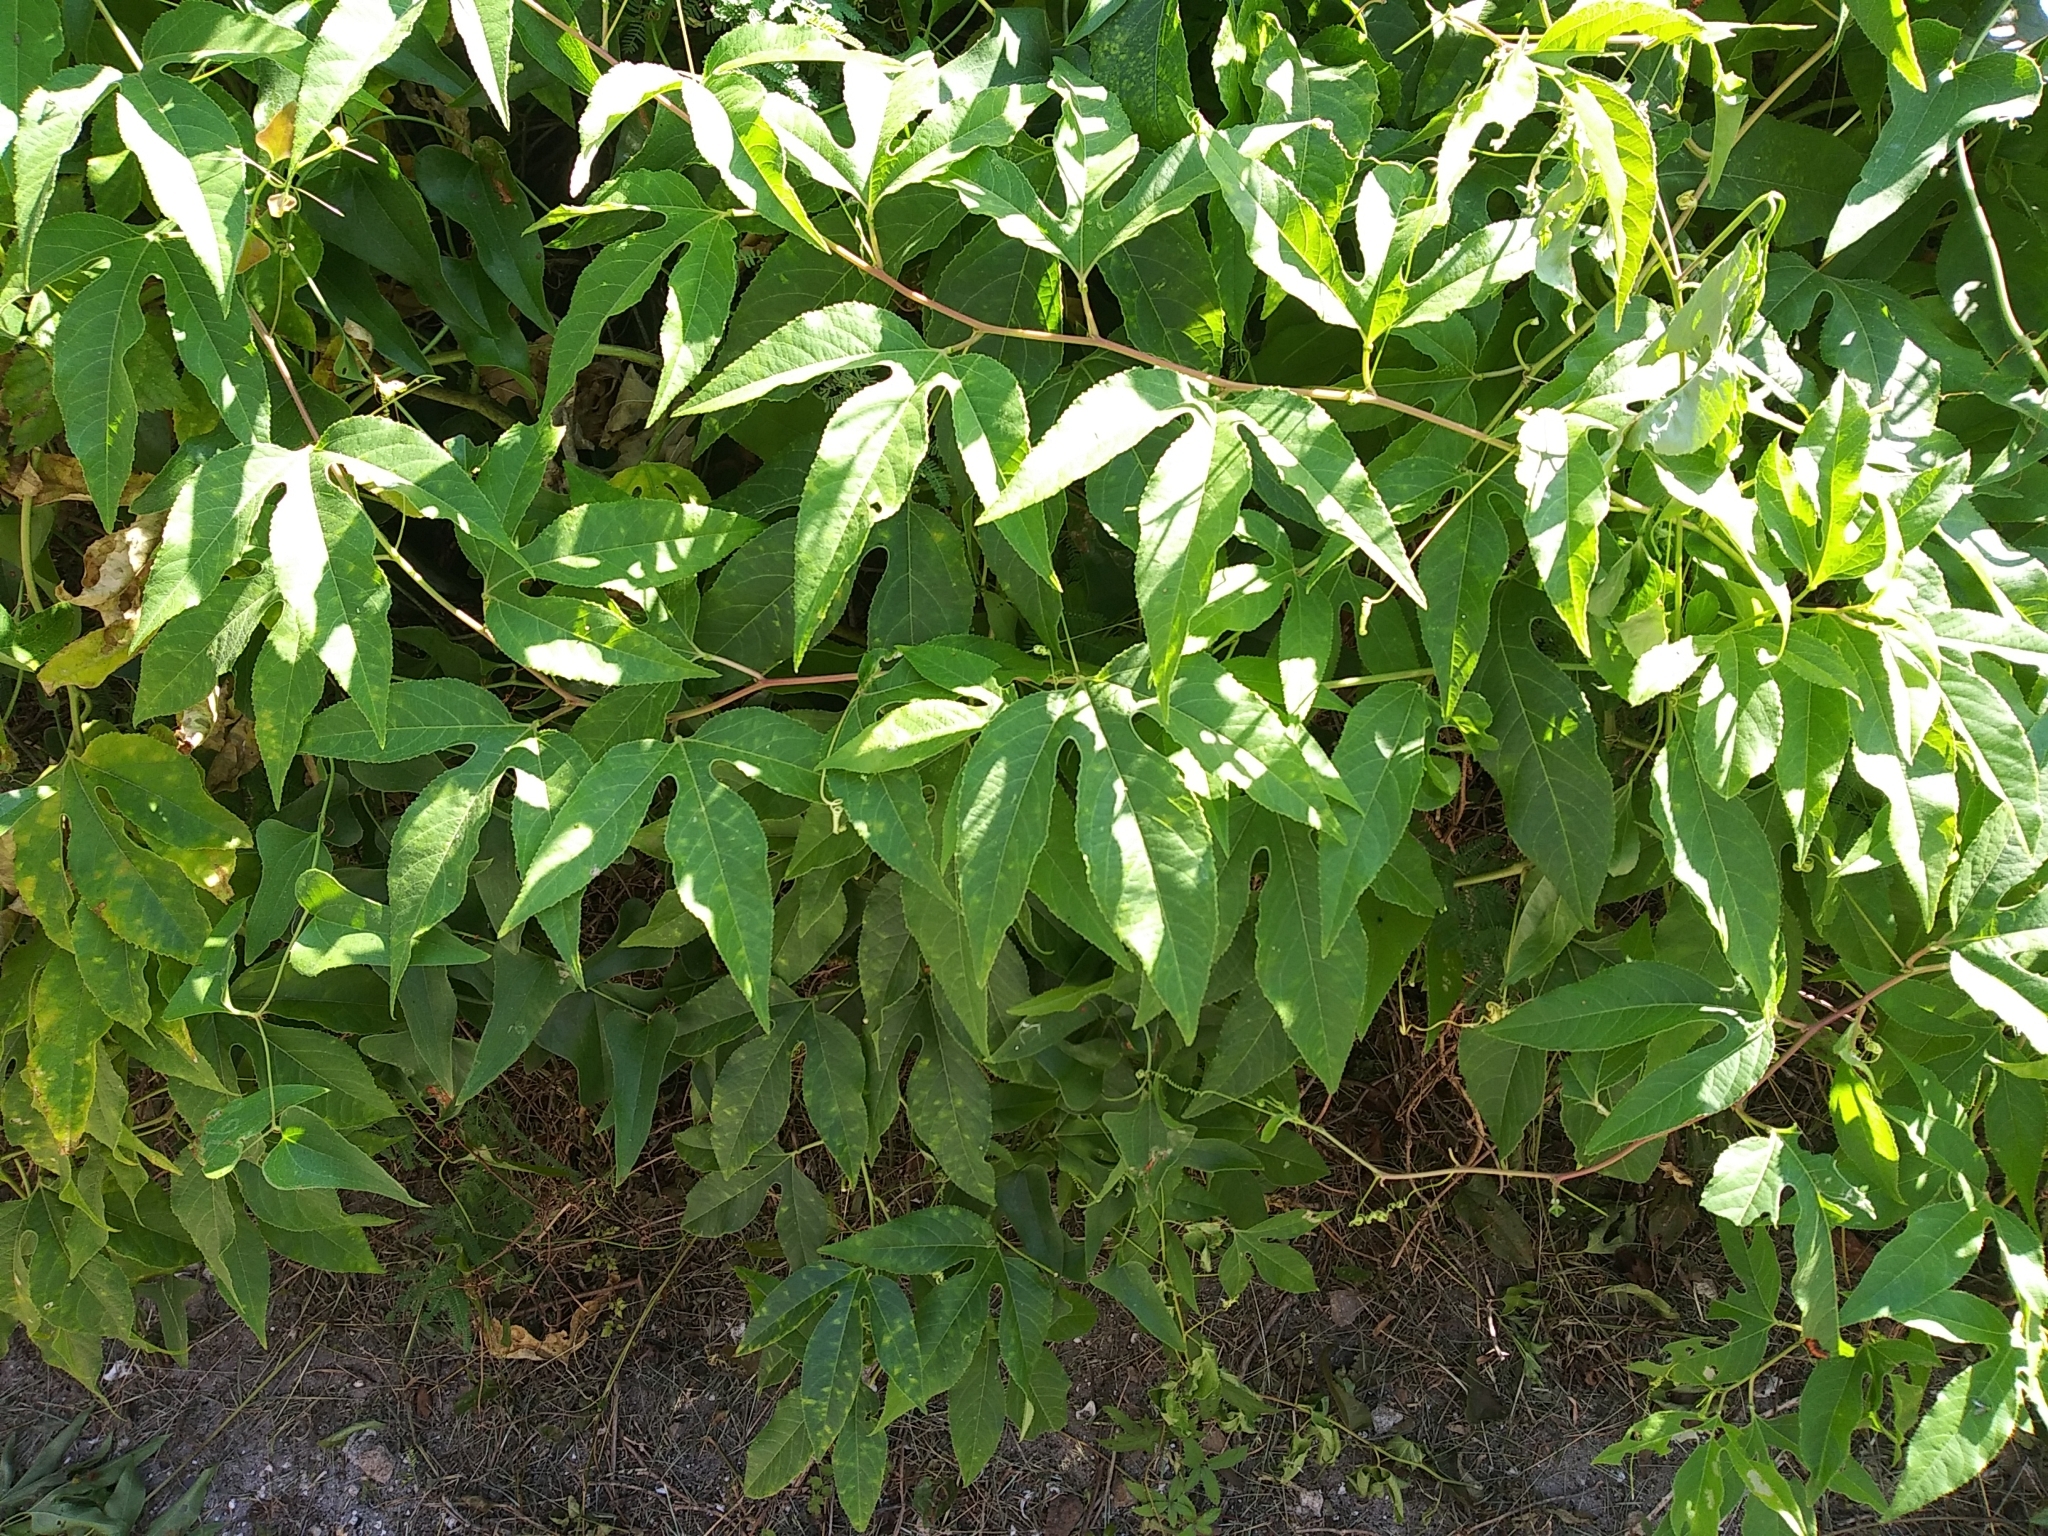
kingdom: Plantae
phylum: Tracheophyta
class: Magnoliopsida
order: Malpighiales
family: Passifloraceae
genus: Passiflora
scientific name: Passiflora incarnata
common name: Apricot-vine
